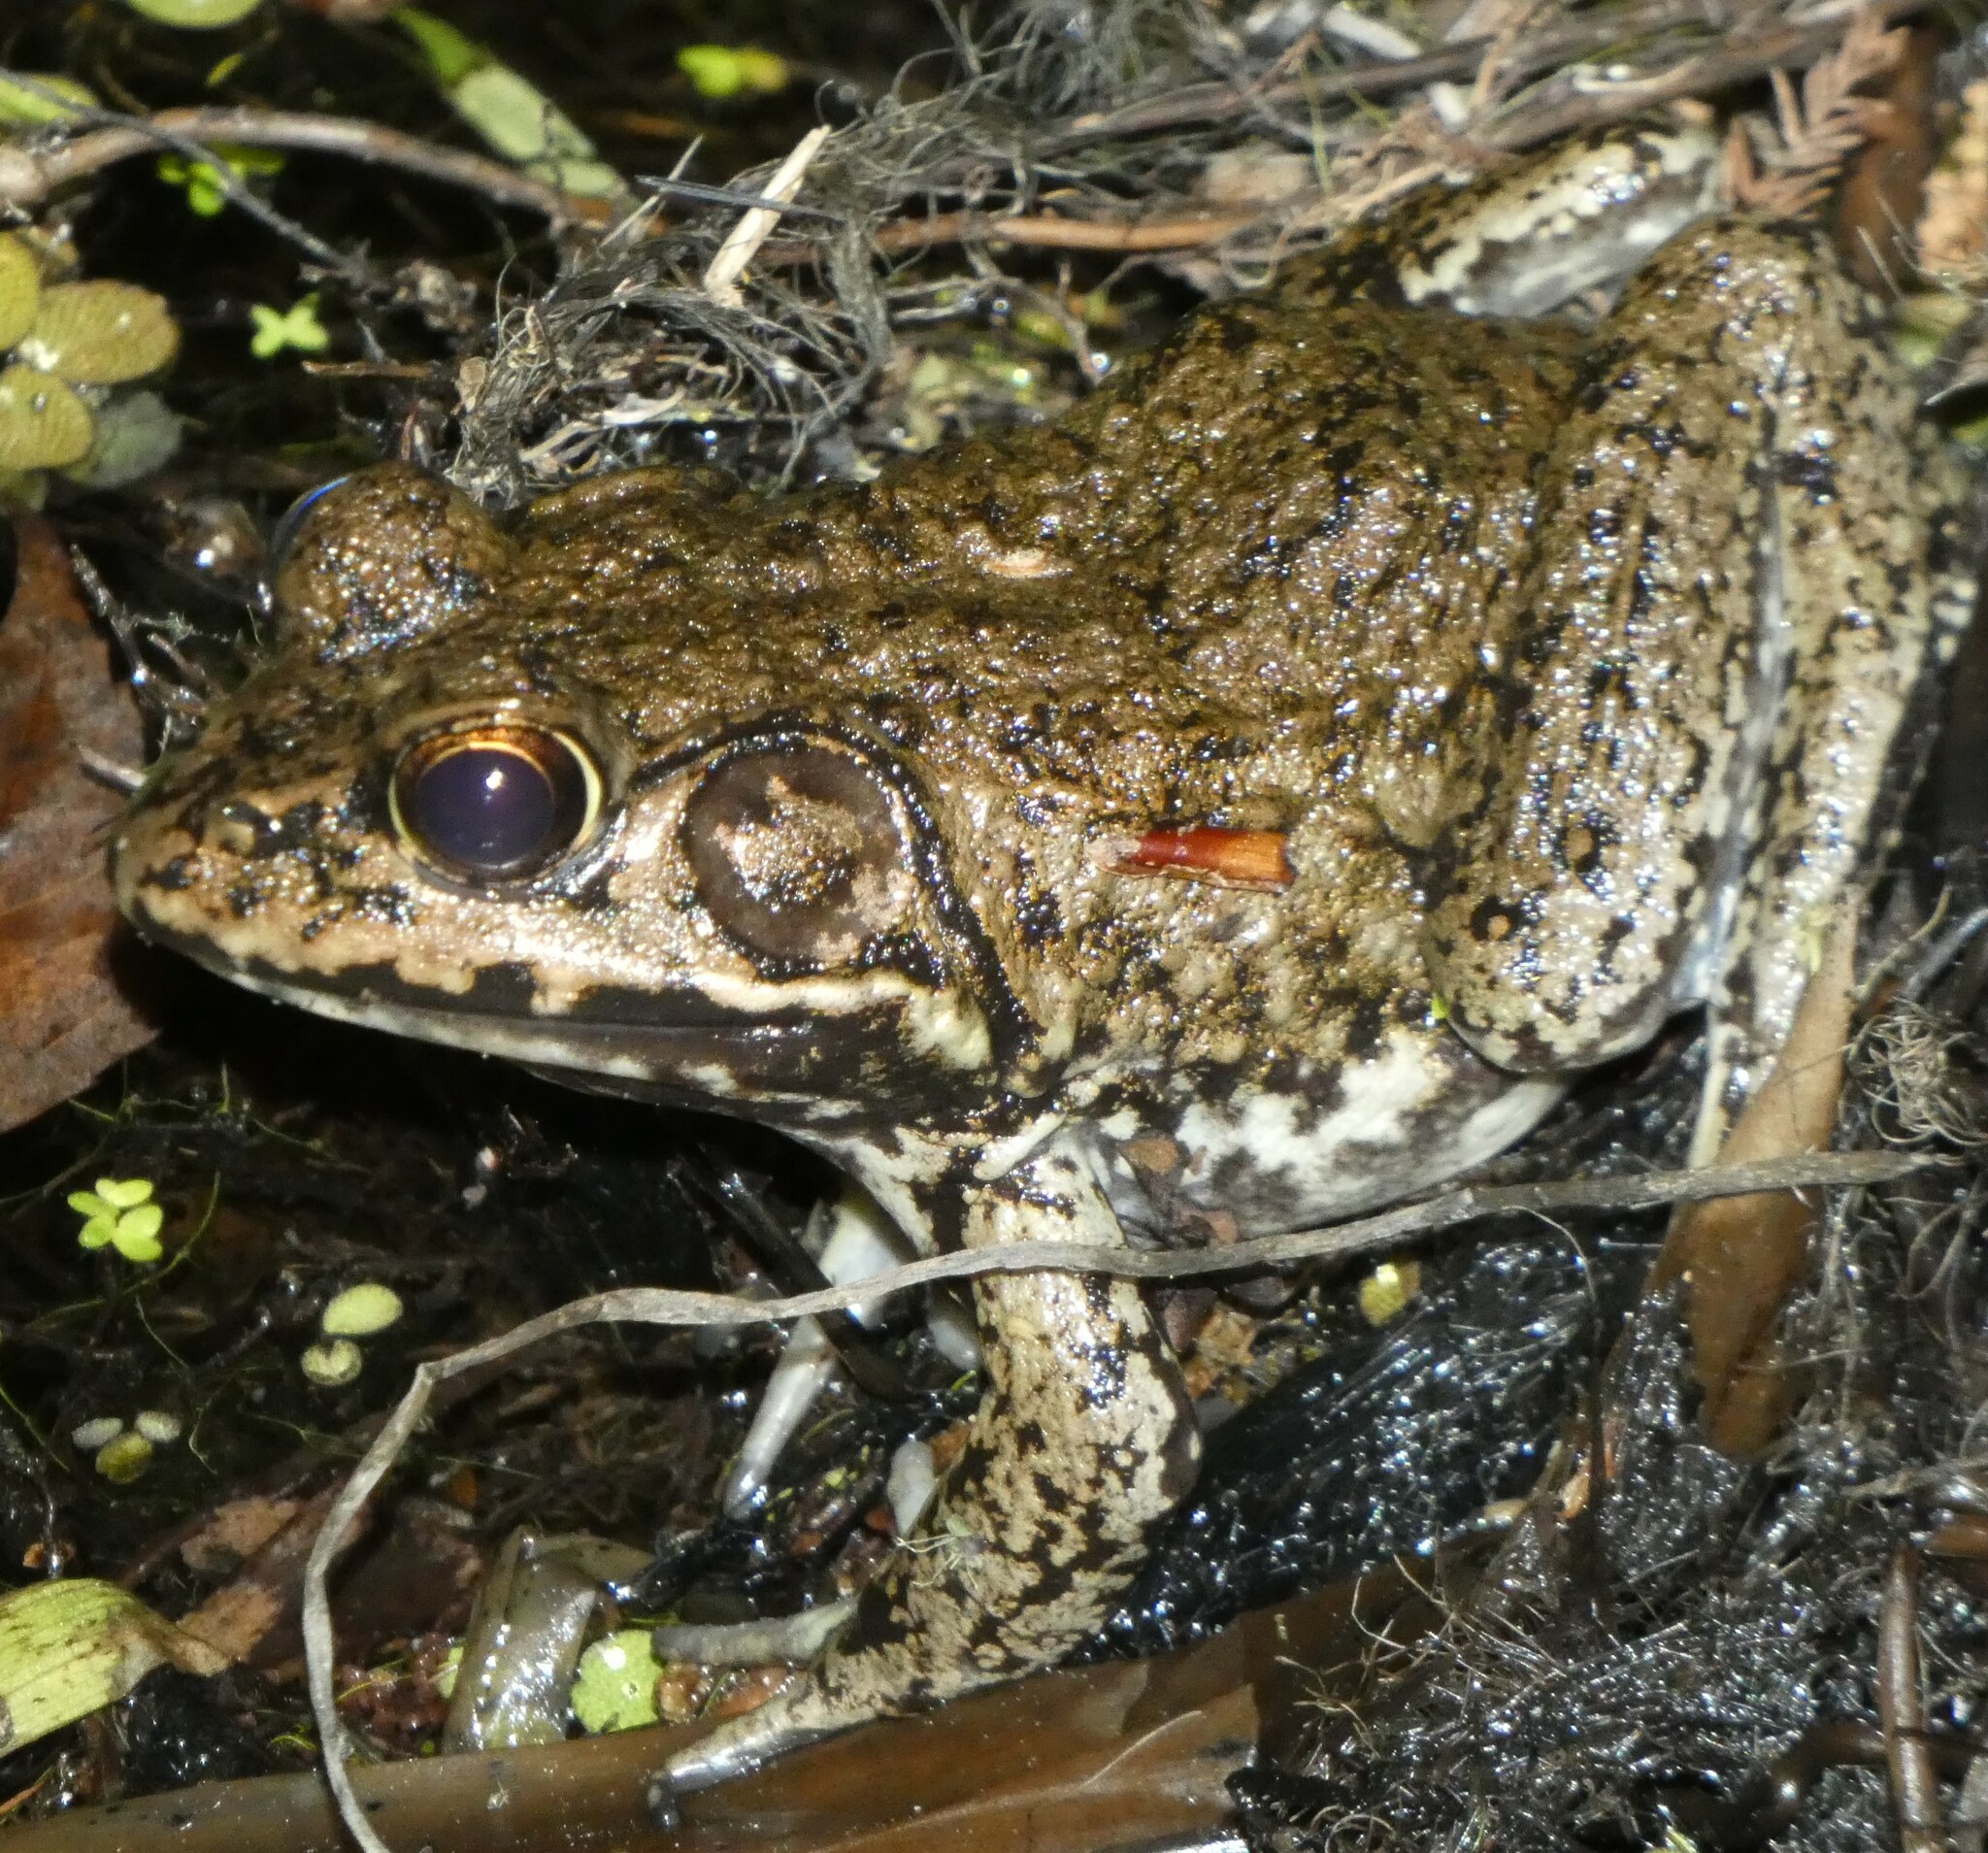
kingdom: Animalia
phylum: Chordata
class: Amphibia
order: Anura
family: Ranidae
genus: Lithobates
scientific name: Lithobates heckscheri
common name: River frog
